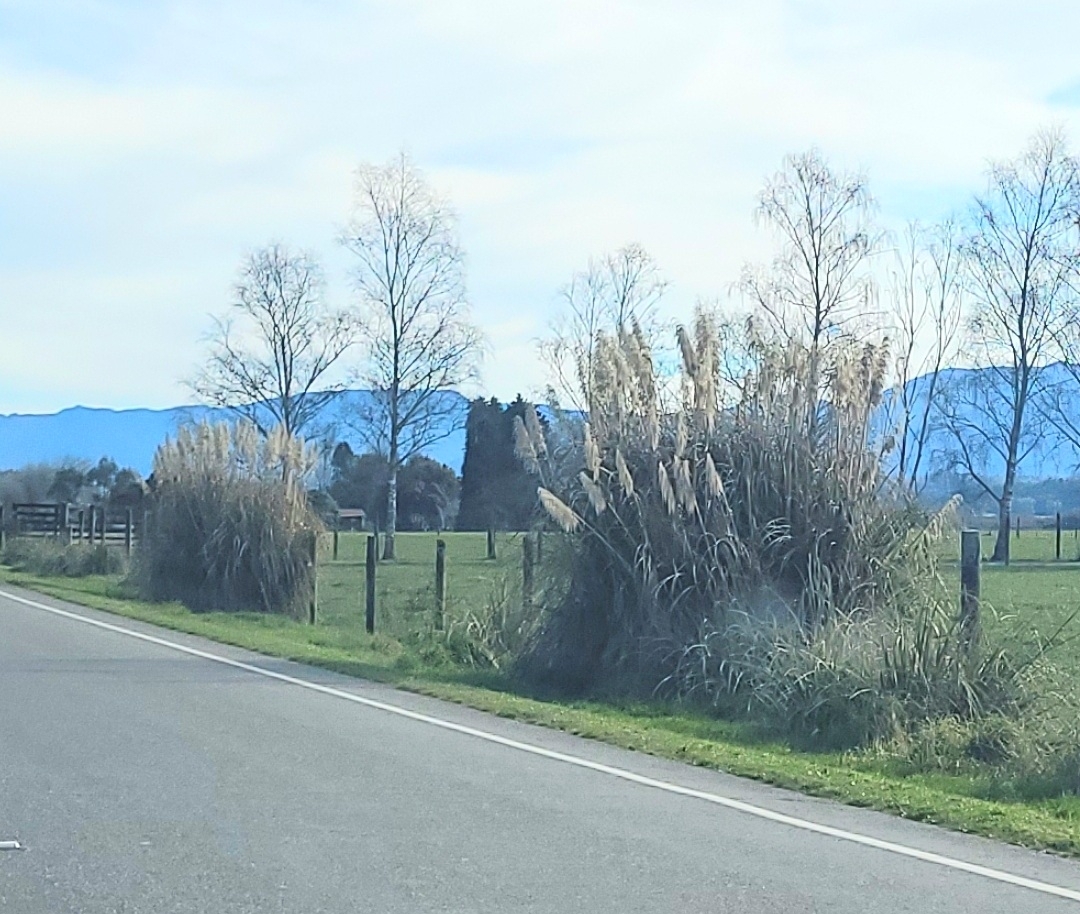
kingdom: Plantae
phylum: Tracheophyta
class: Liliopsida
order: Poales
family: Poaceae
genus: Cortaderia
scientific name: Cortaderia selloana
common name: Uruguayan pampas grass
